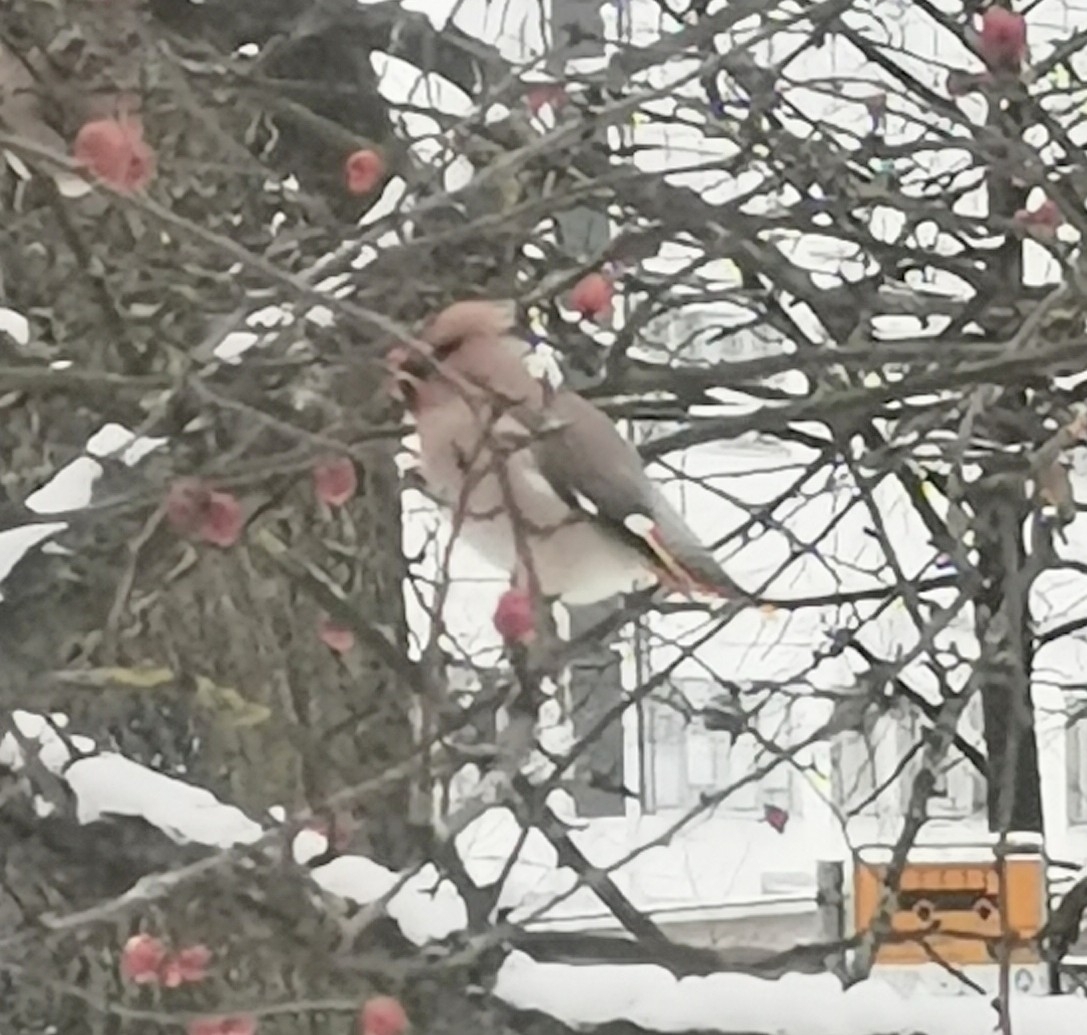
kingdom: Animalia
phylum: Chordata
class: Aves
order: Passeriformes
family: Bombycillidae
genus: Bombycilla
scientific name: Bombycilla garrulus
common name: Bohemian waxwing
